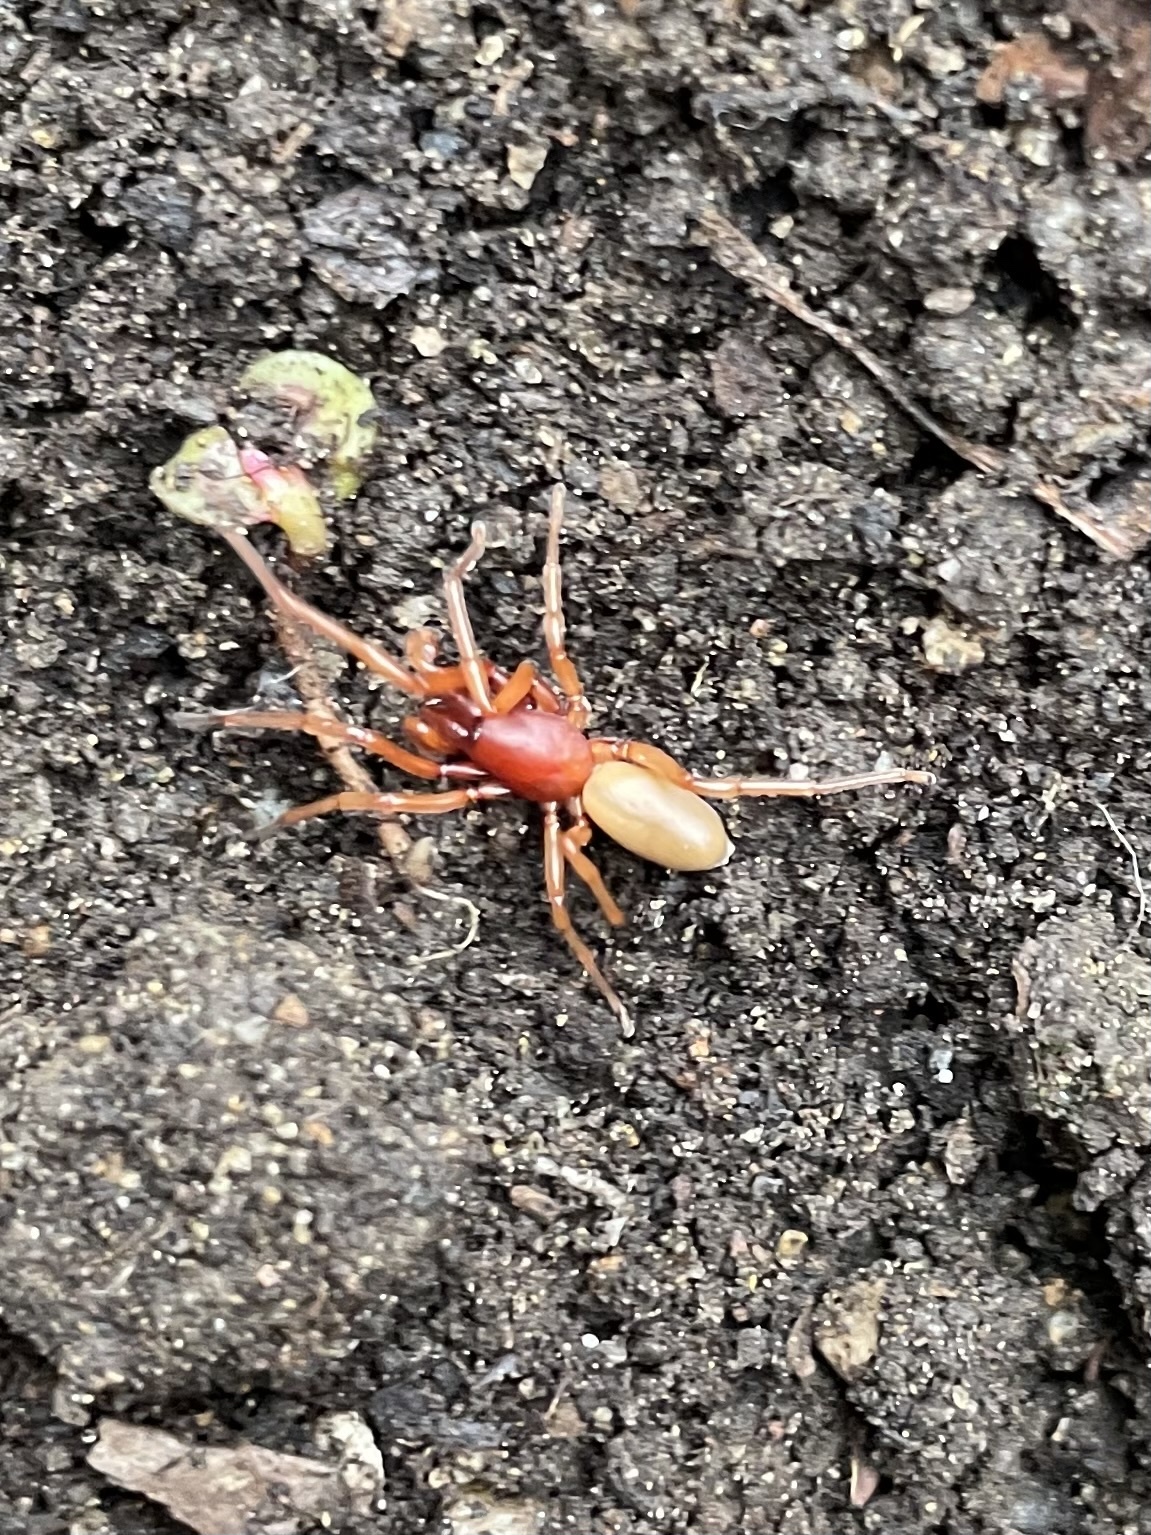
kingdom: Animalia
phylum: Arthropoda
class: Arachnida
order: Araneae
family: Dysderidae
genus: Dysdera
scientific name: Dysdera crocata
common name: Woodlouse spider
